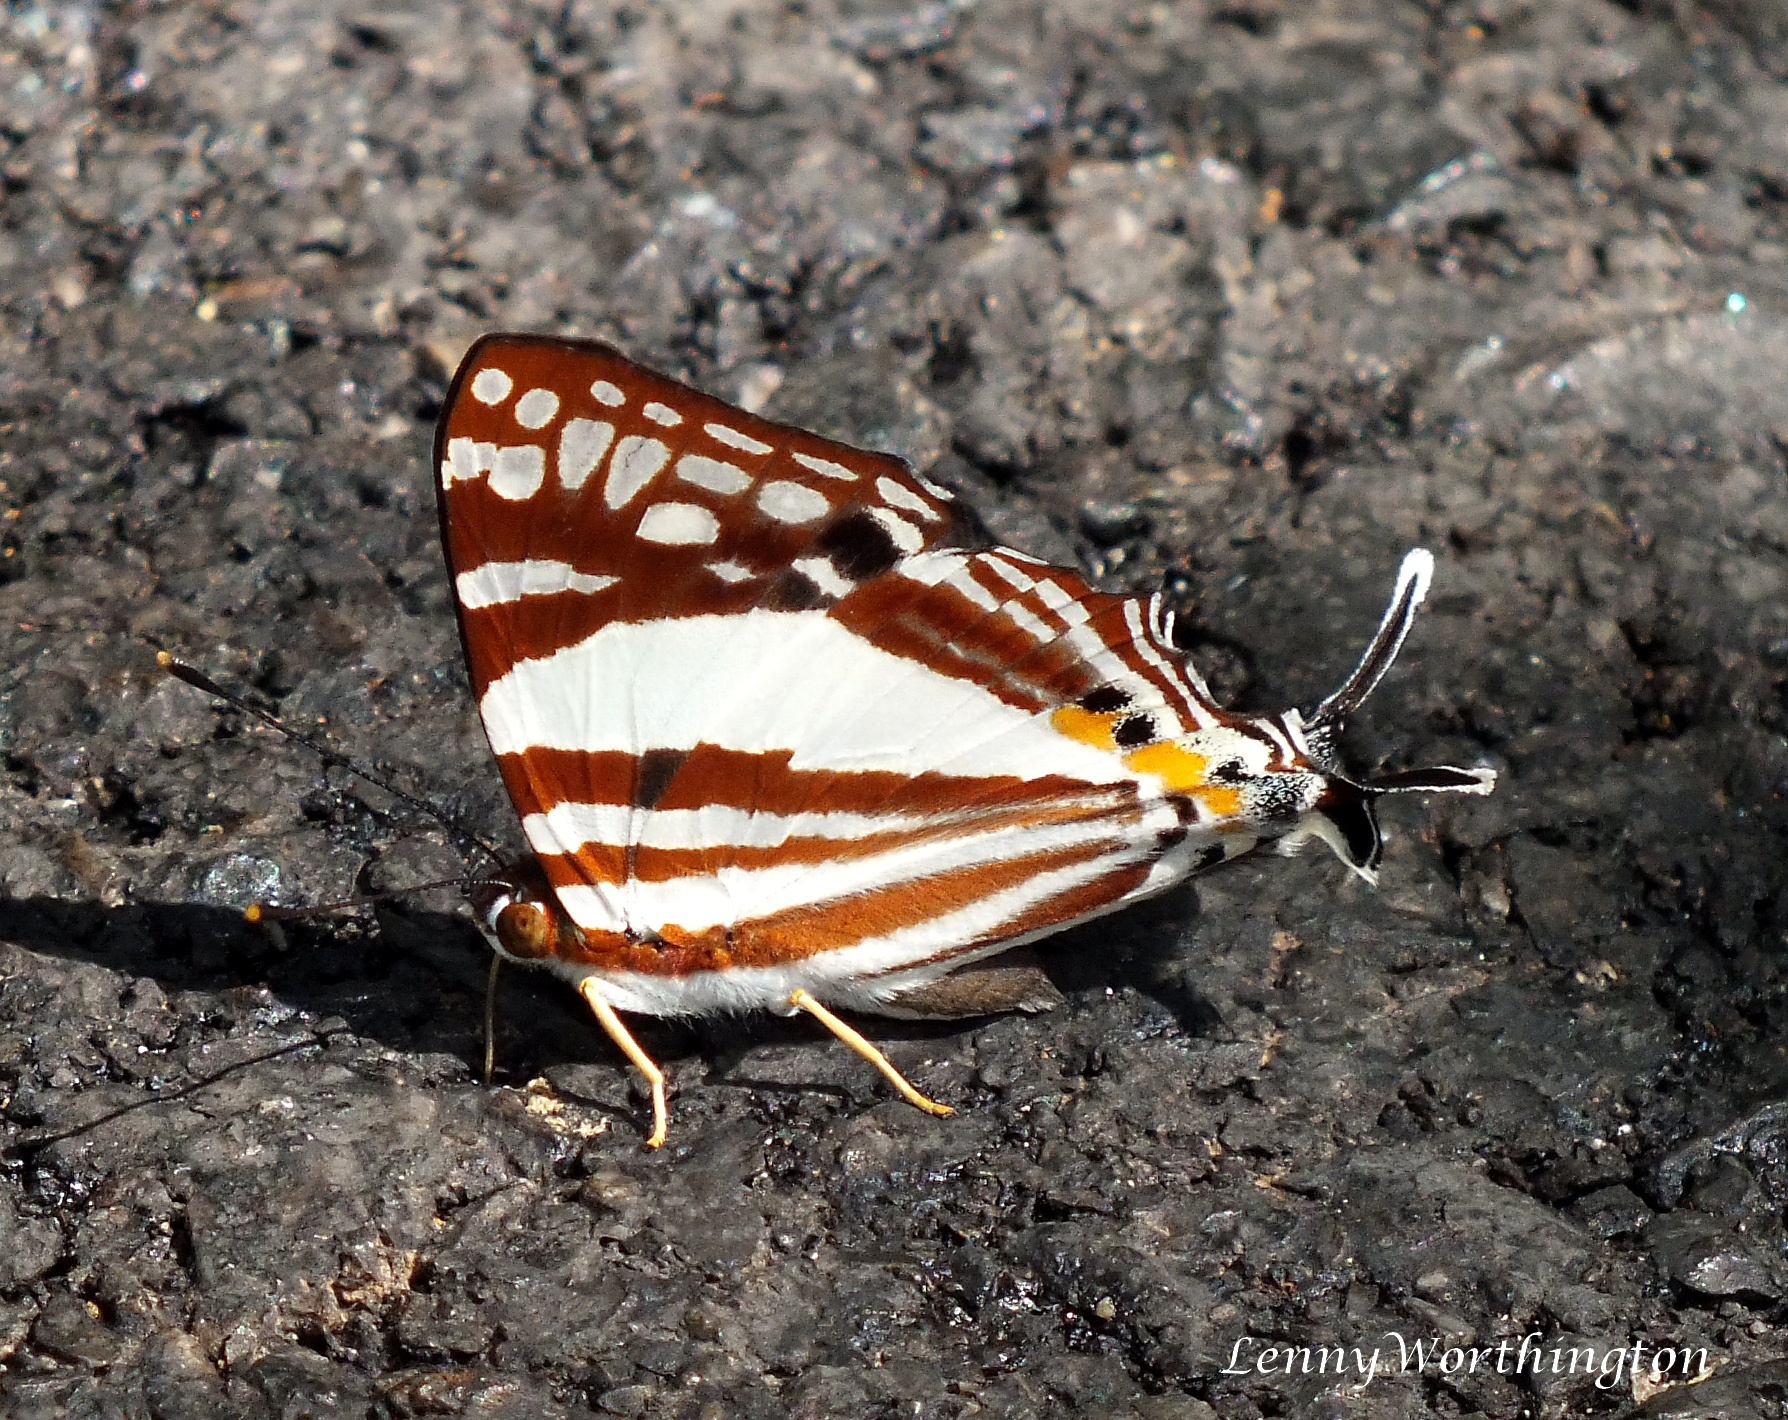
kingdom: Animalia
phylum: Arthropoda
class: Insecta
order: Lepidoptera
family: Lycaenidae
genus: Dodona
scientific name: Dodona deodata
